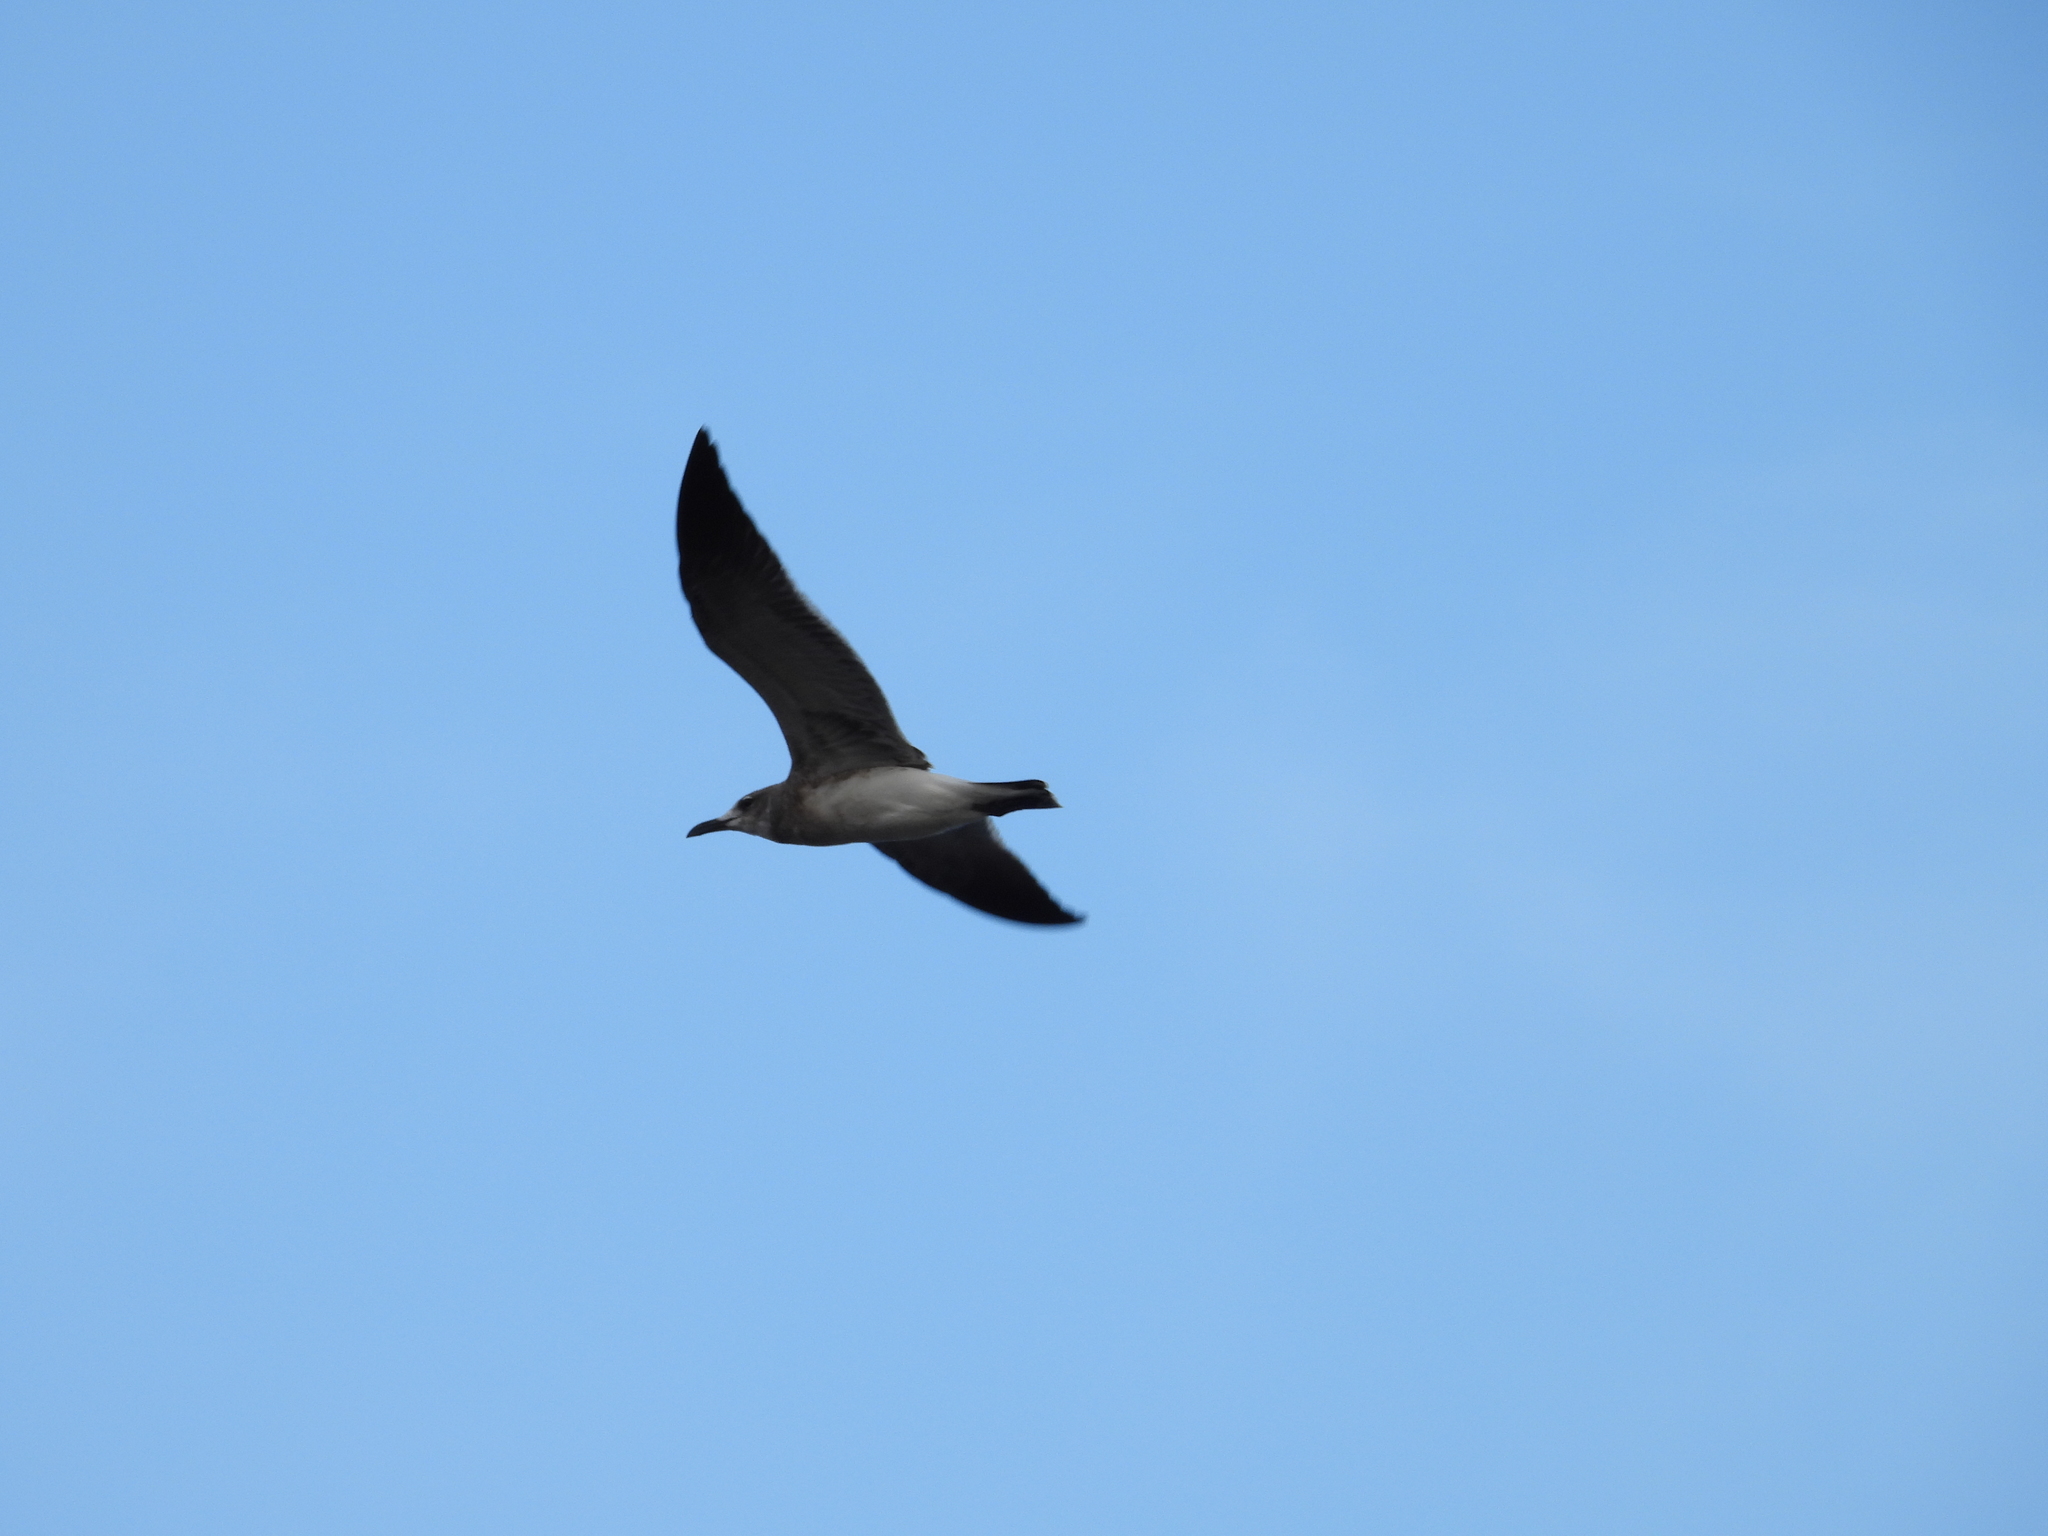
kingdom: Animalia
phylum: Chordata
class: Aves
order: Charadriiformes
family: Laridae
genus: Leucophaeus
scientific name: Leucophaeus atricilla
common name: Laughing gull
